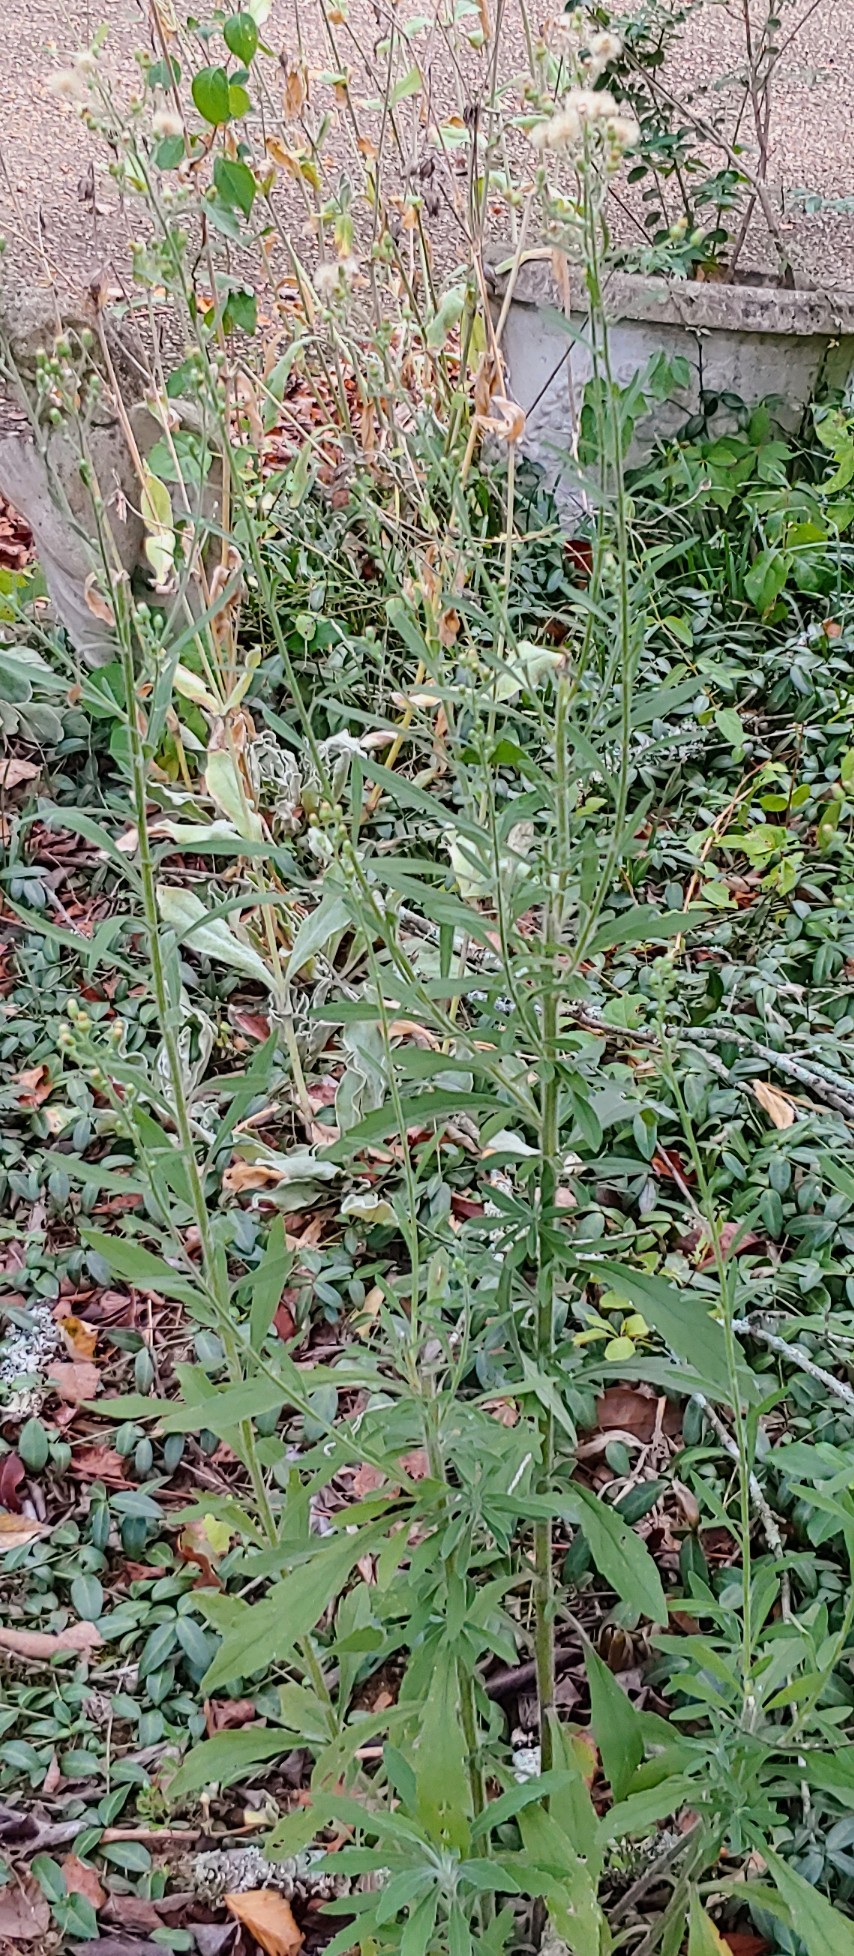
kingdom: Plantae
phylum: Tracheophyta
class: Magnoliopsida
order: Asterales
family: Asteraceae
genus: Erigeron
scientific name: Erigeron bonariensis
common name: Argentine fleabane
